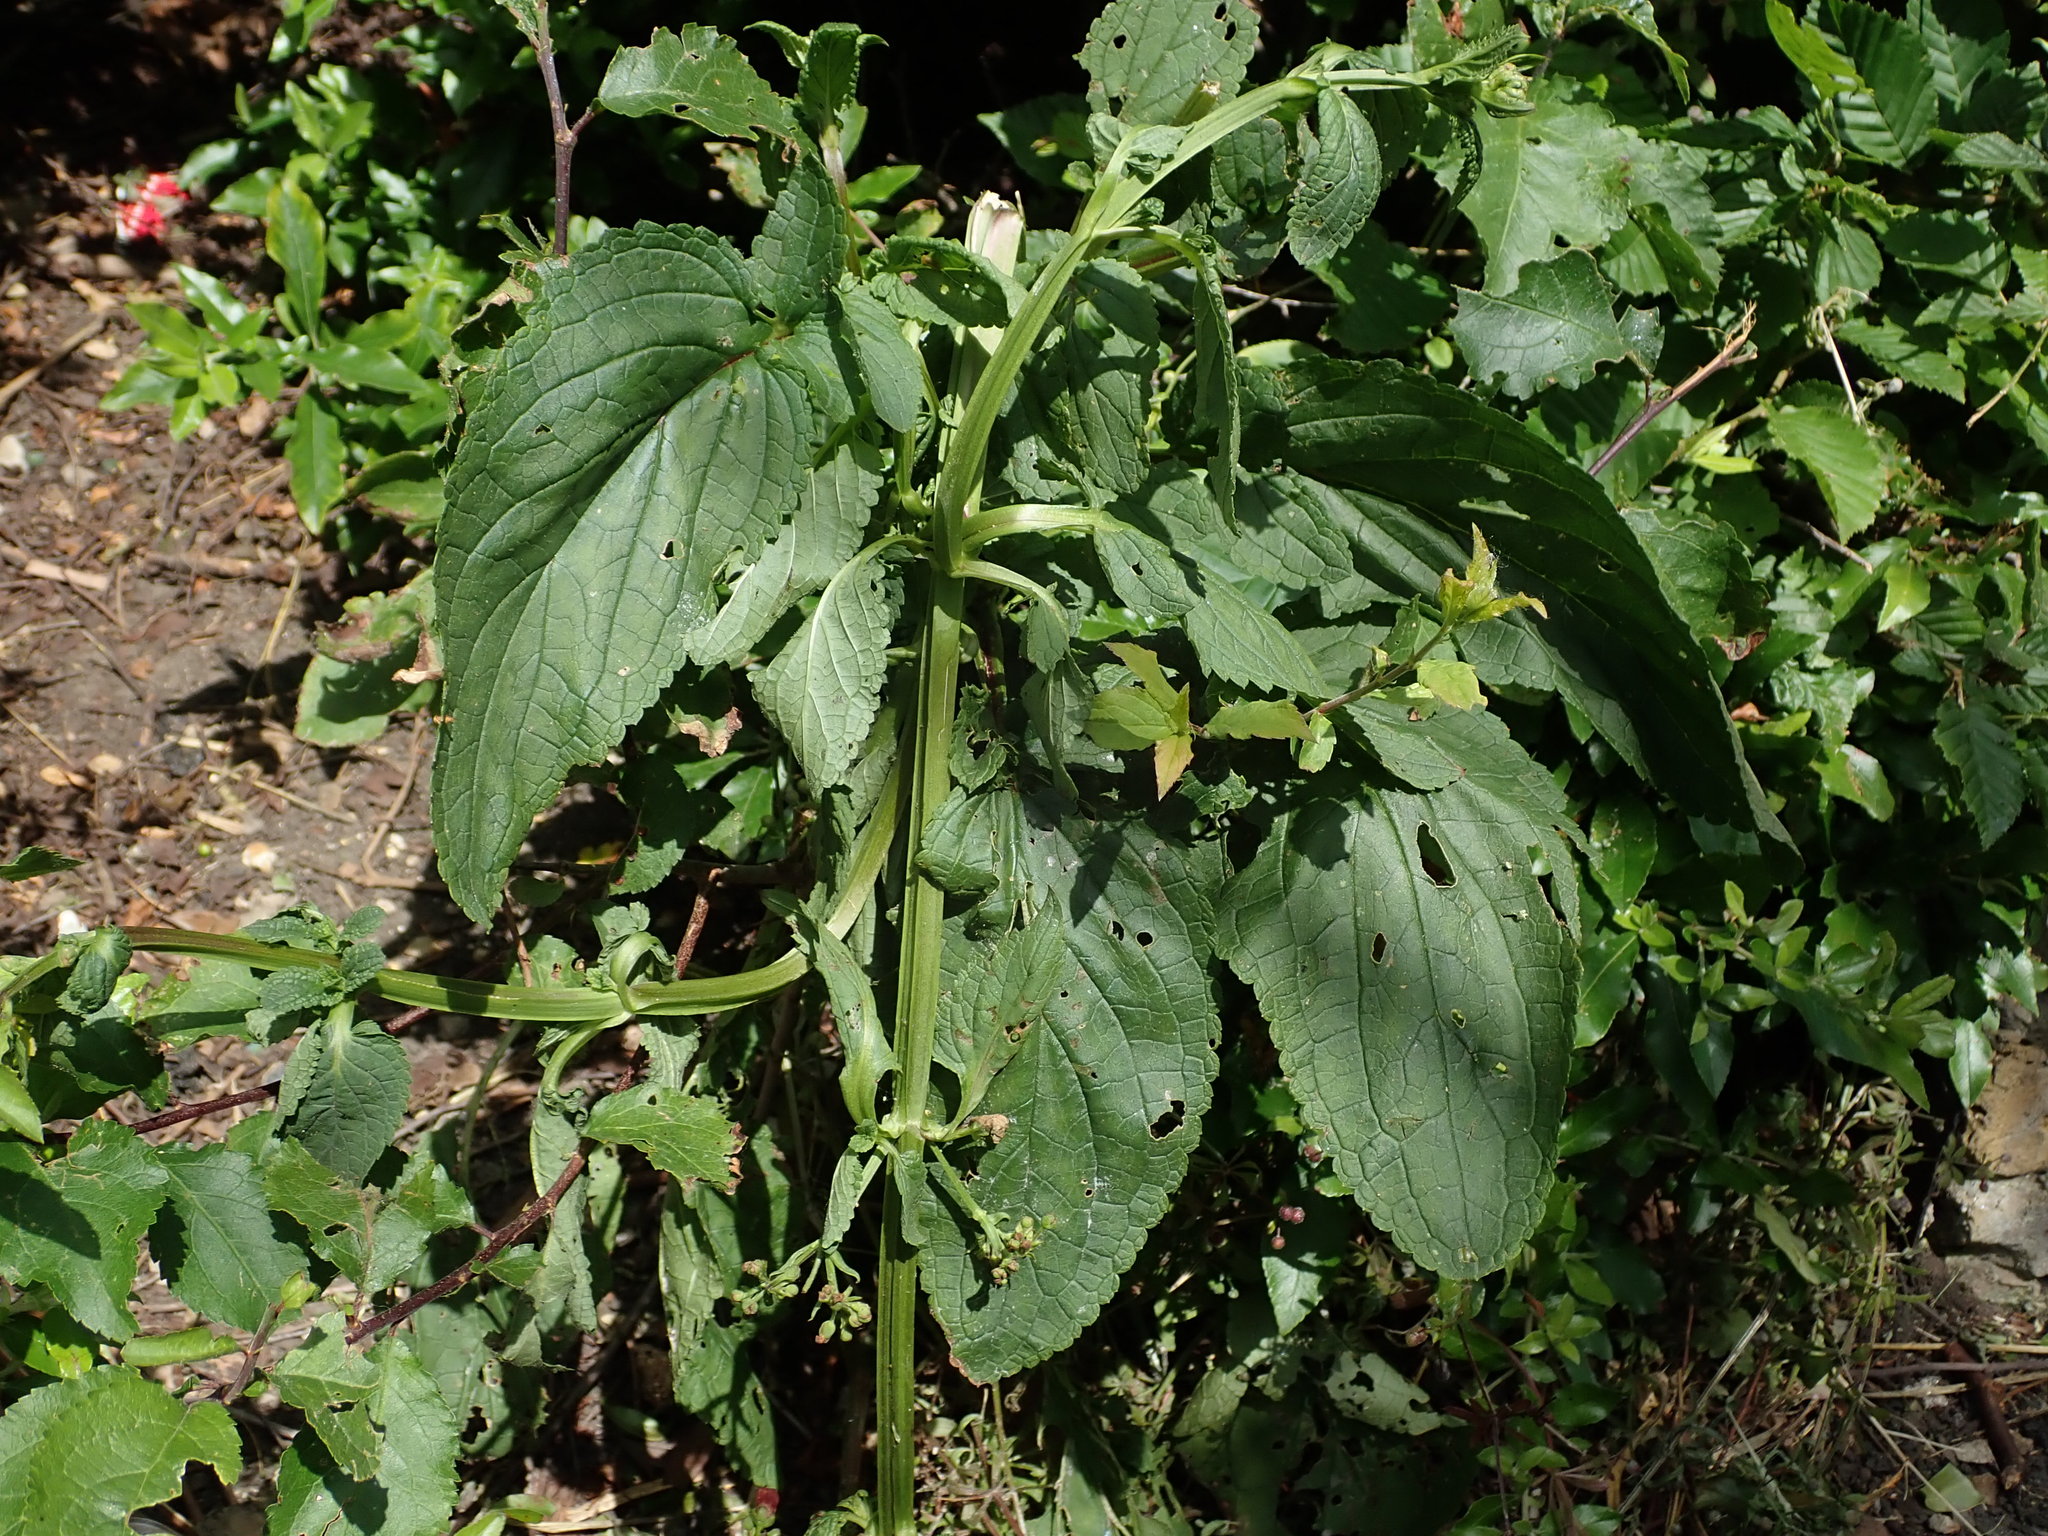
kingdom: Plantae
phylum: Tracheophyta
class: Magnoliopsida
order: Lamiales
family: Scrophulariaceae
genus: Scrophularia
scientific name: Scrophularia auriculata
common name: Water betony
